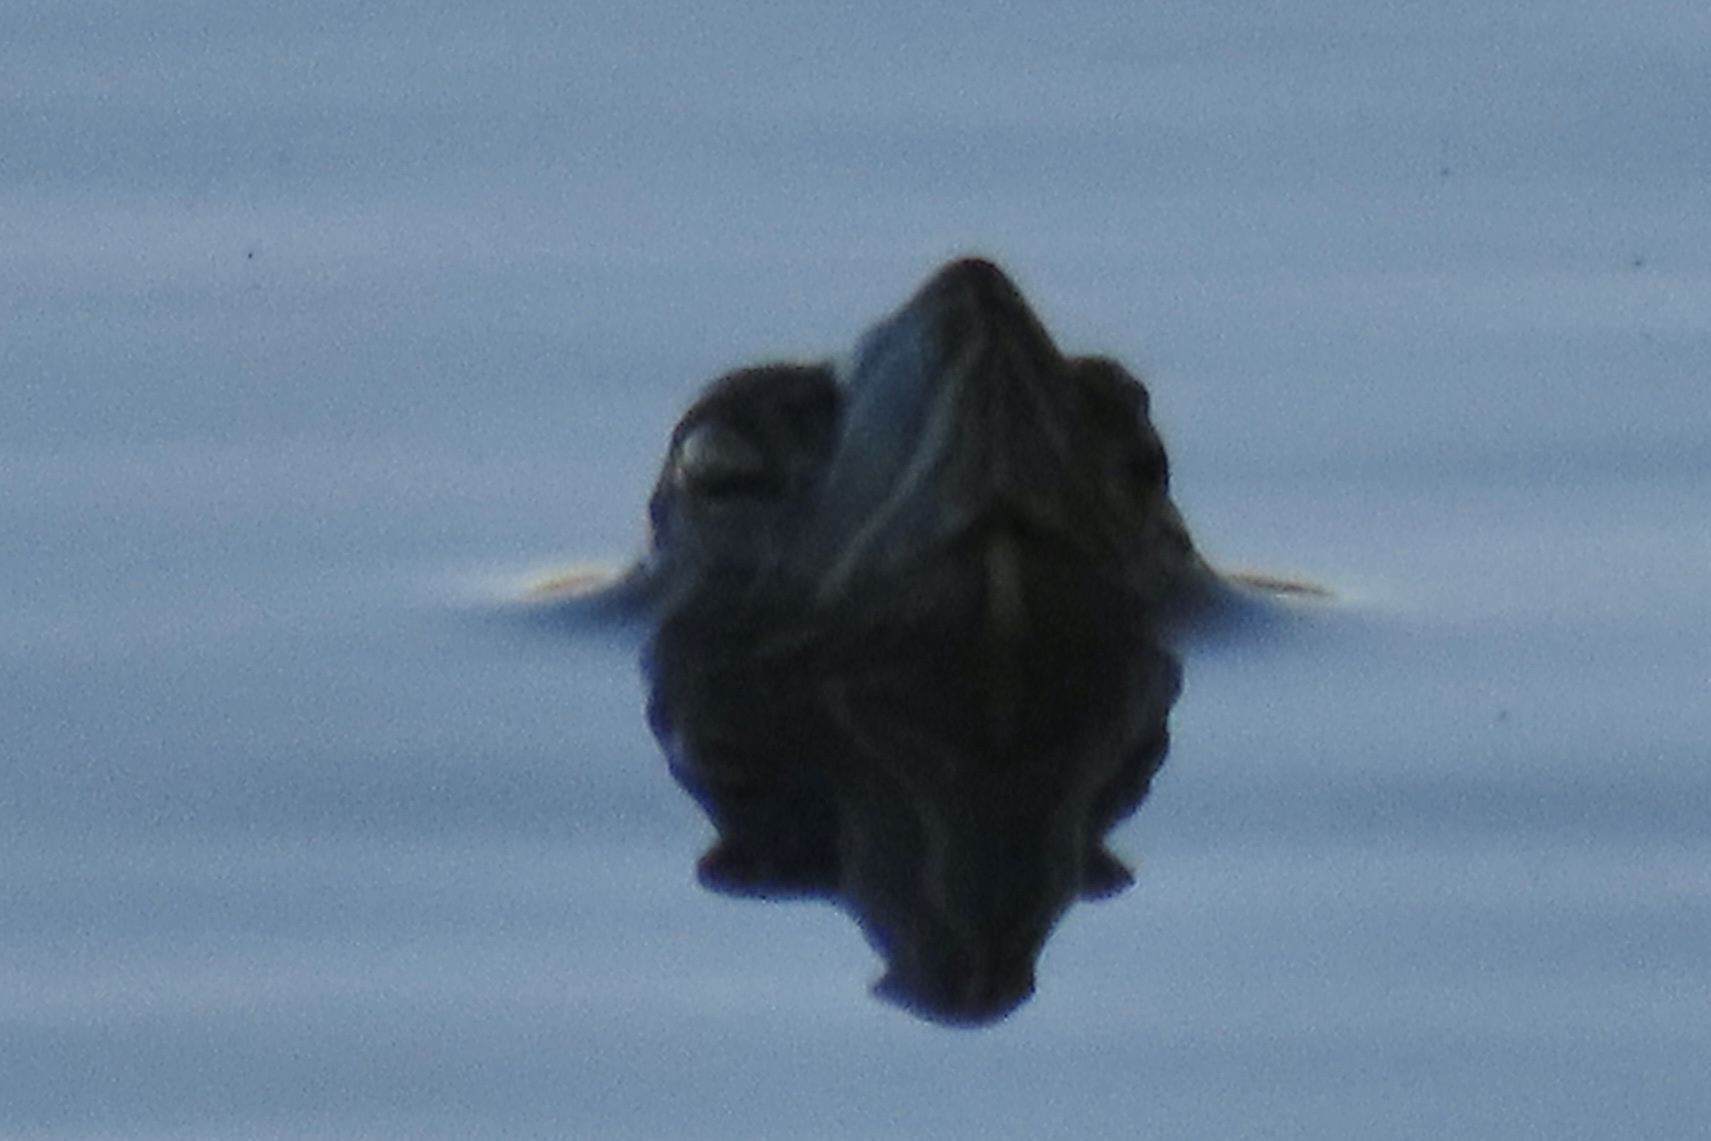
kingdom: Animalia
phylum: Chordata
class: Testudines
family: Emydidae
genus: Trachemys
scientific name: Trachemys scripta
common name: Slider
